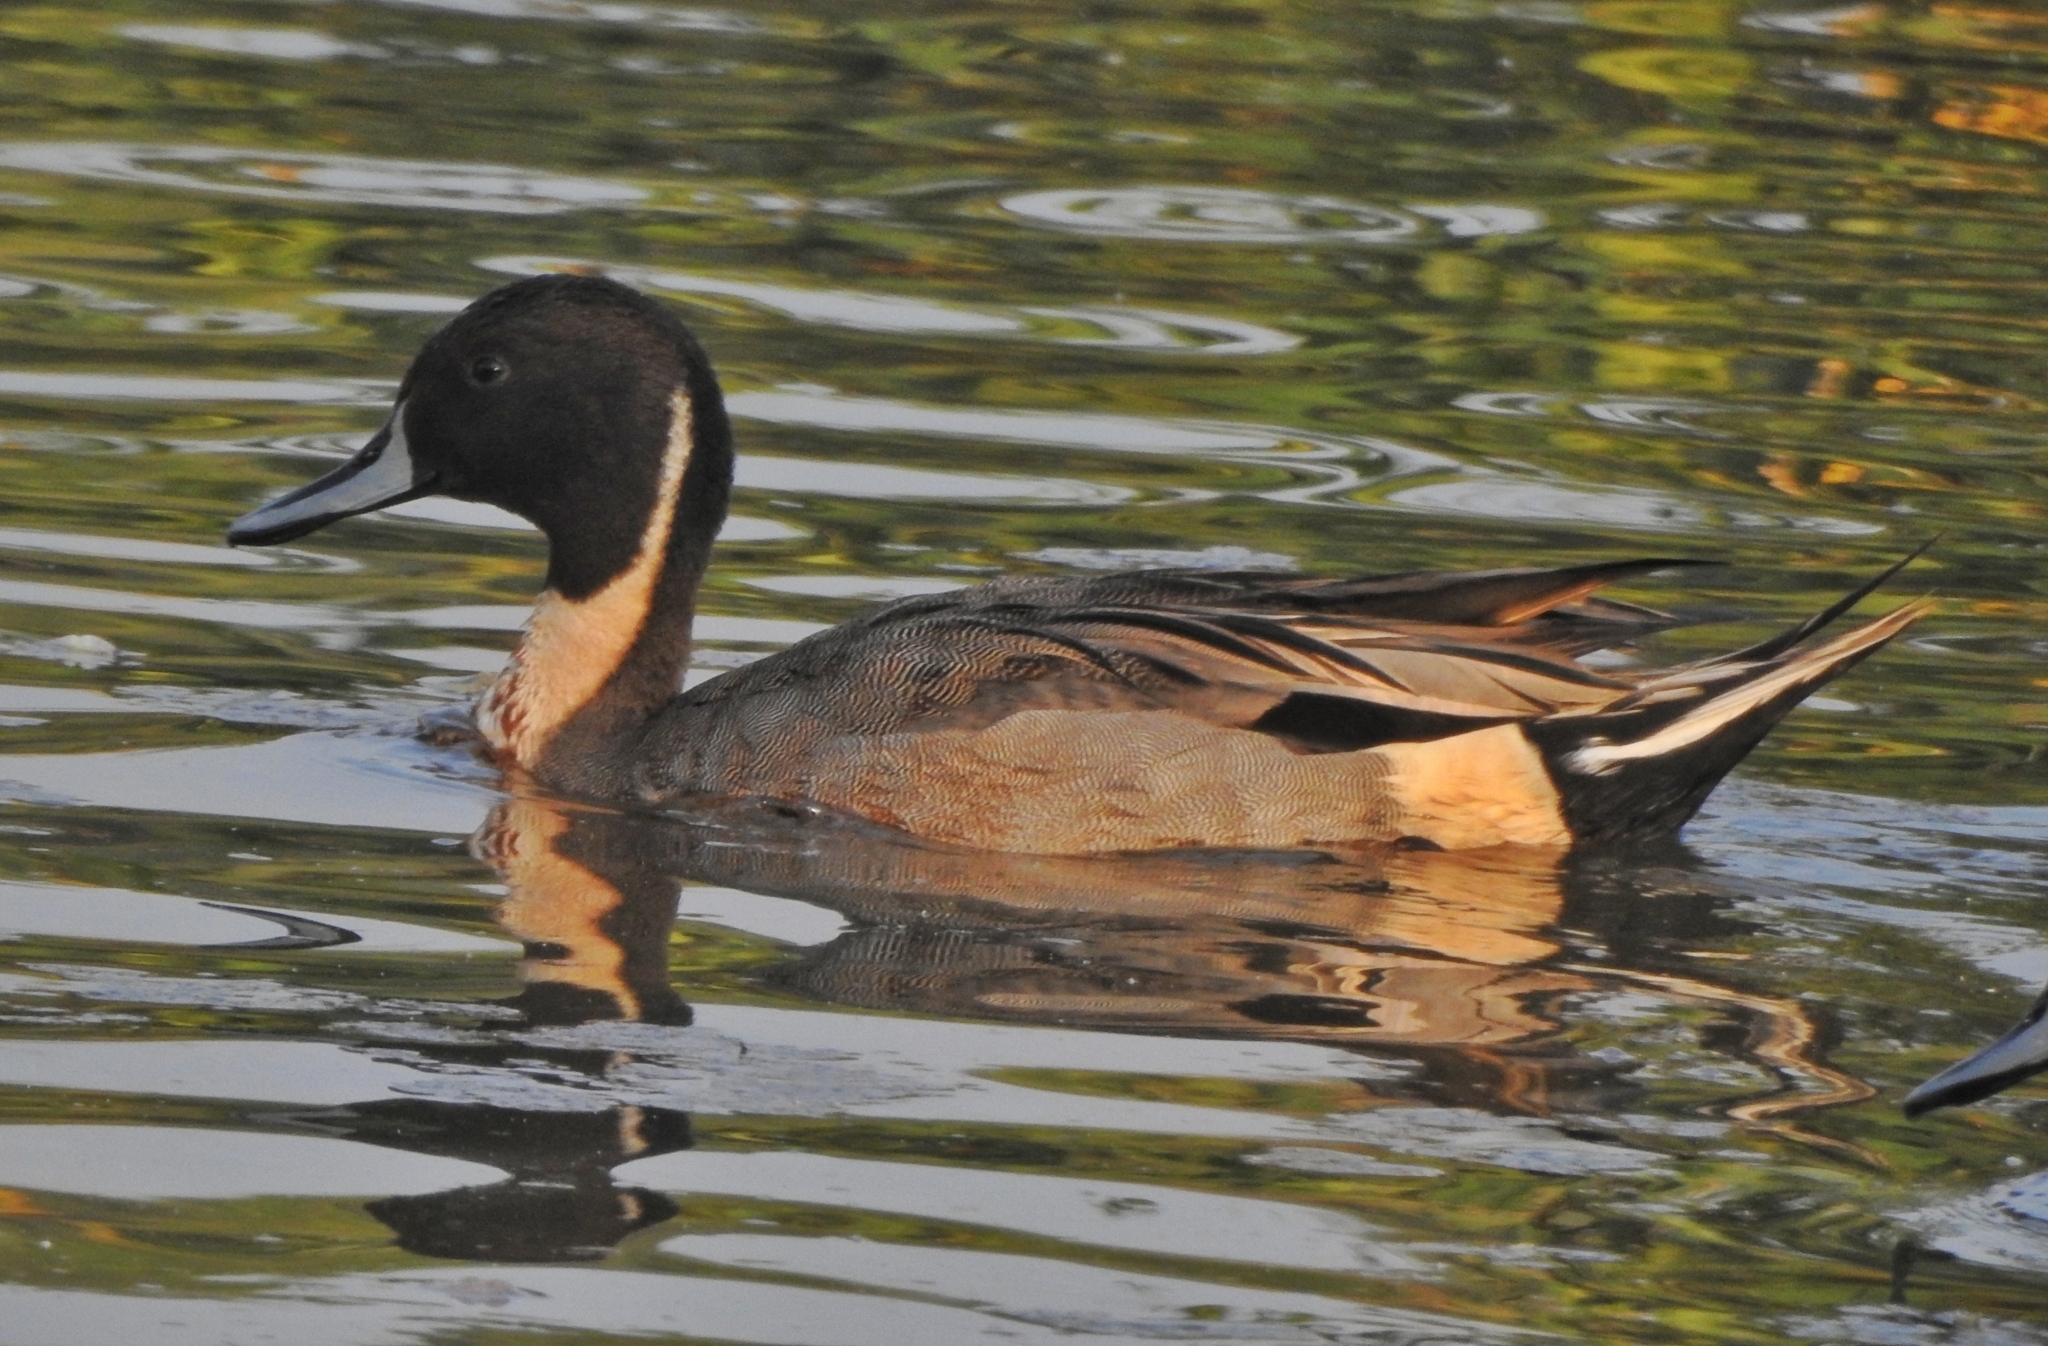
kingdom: Animalia
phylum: Chordata
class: Aves
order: Anseriformes
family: Anatidae
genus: Anas
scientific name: Anas acuta
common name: Northern pintail
